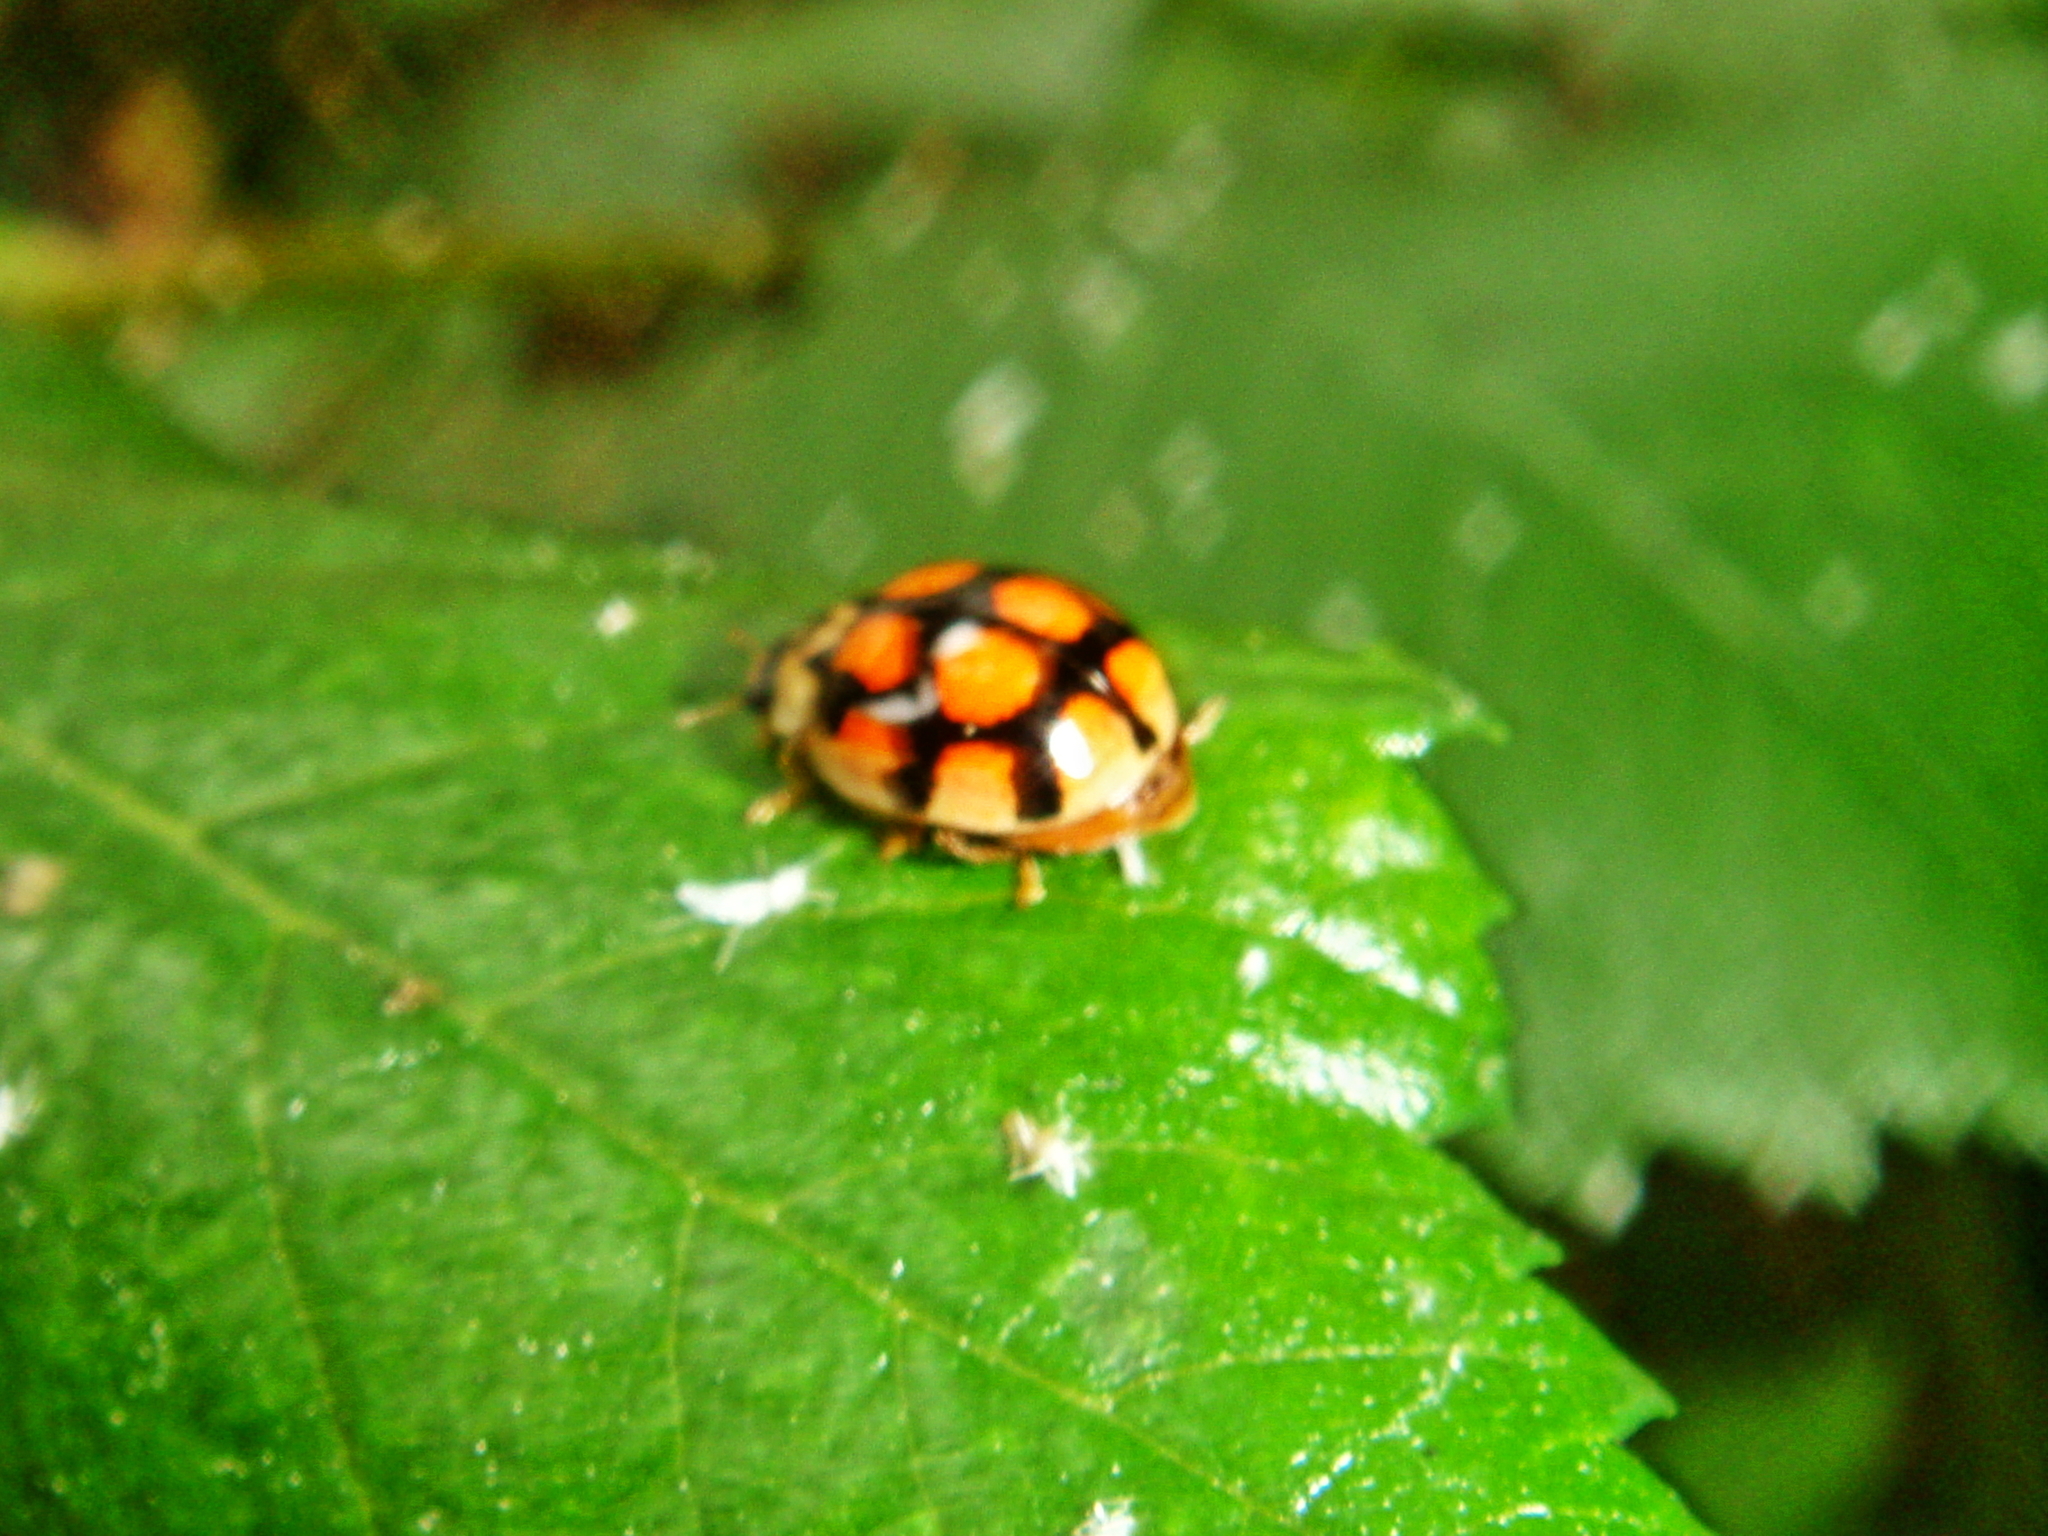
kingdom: Animalia
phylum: Arthropoda
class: Insecta
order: Coleoptera
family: Coccinellidae
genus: Adalia
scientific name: Adalia decempunctata
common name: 10-spot ladybird
